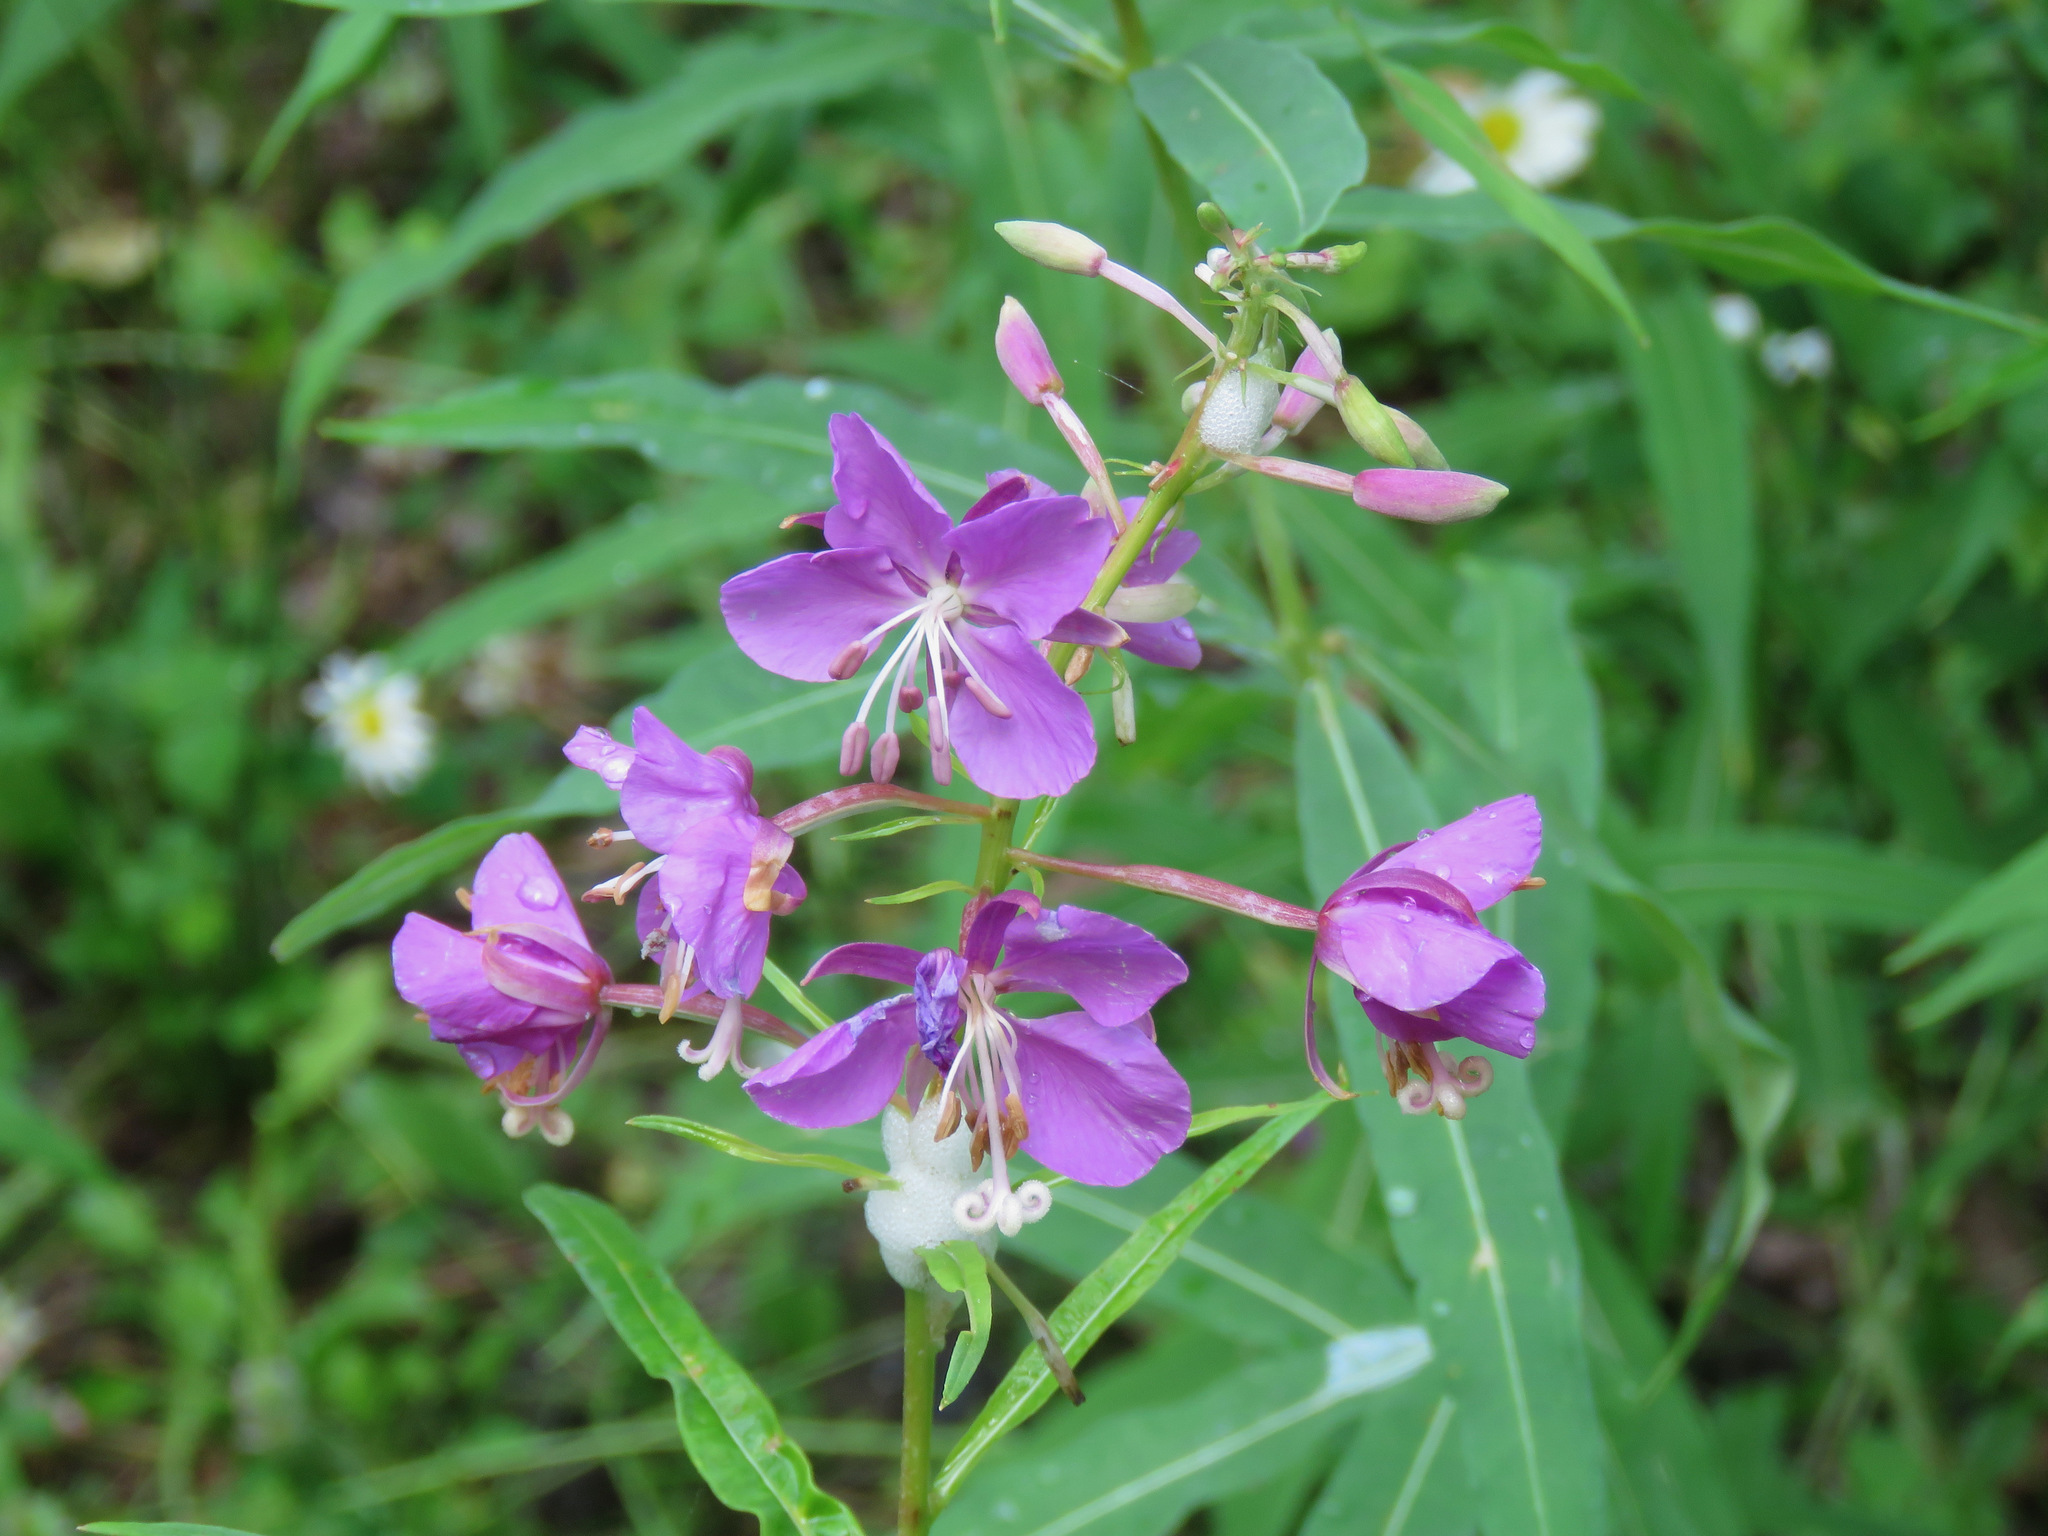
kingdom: Plantae
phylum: Tracheophyta
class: Magnoliopsida
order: Myrtales
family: Onagraceae
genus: Chamaenerion
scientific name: Chamaenerion angustifolium
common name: Fireweed
